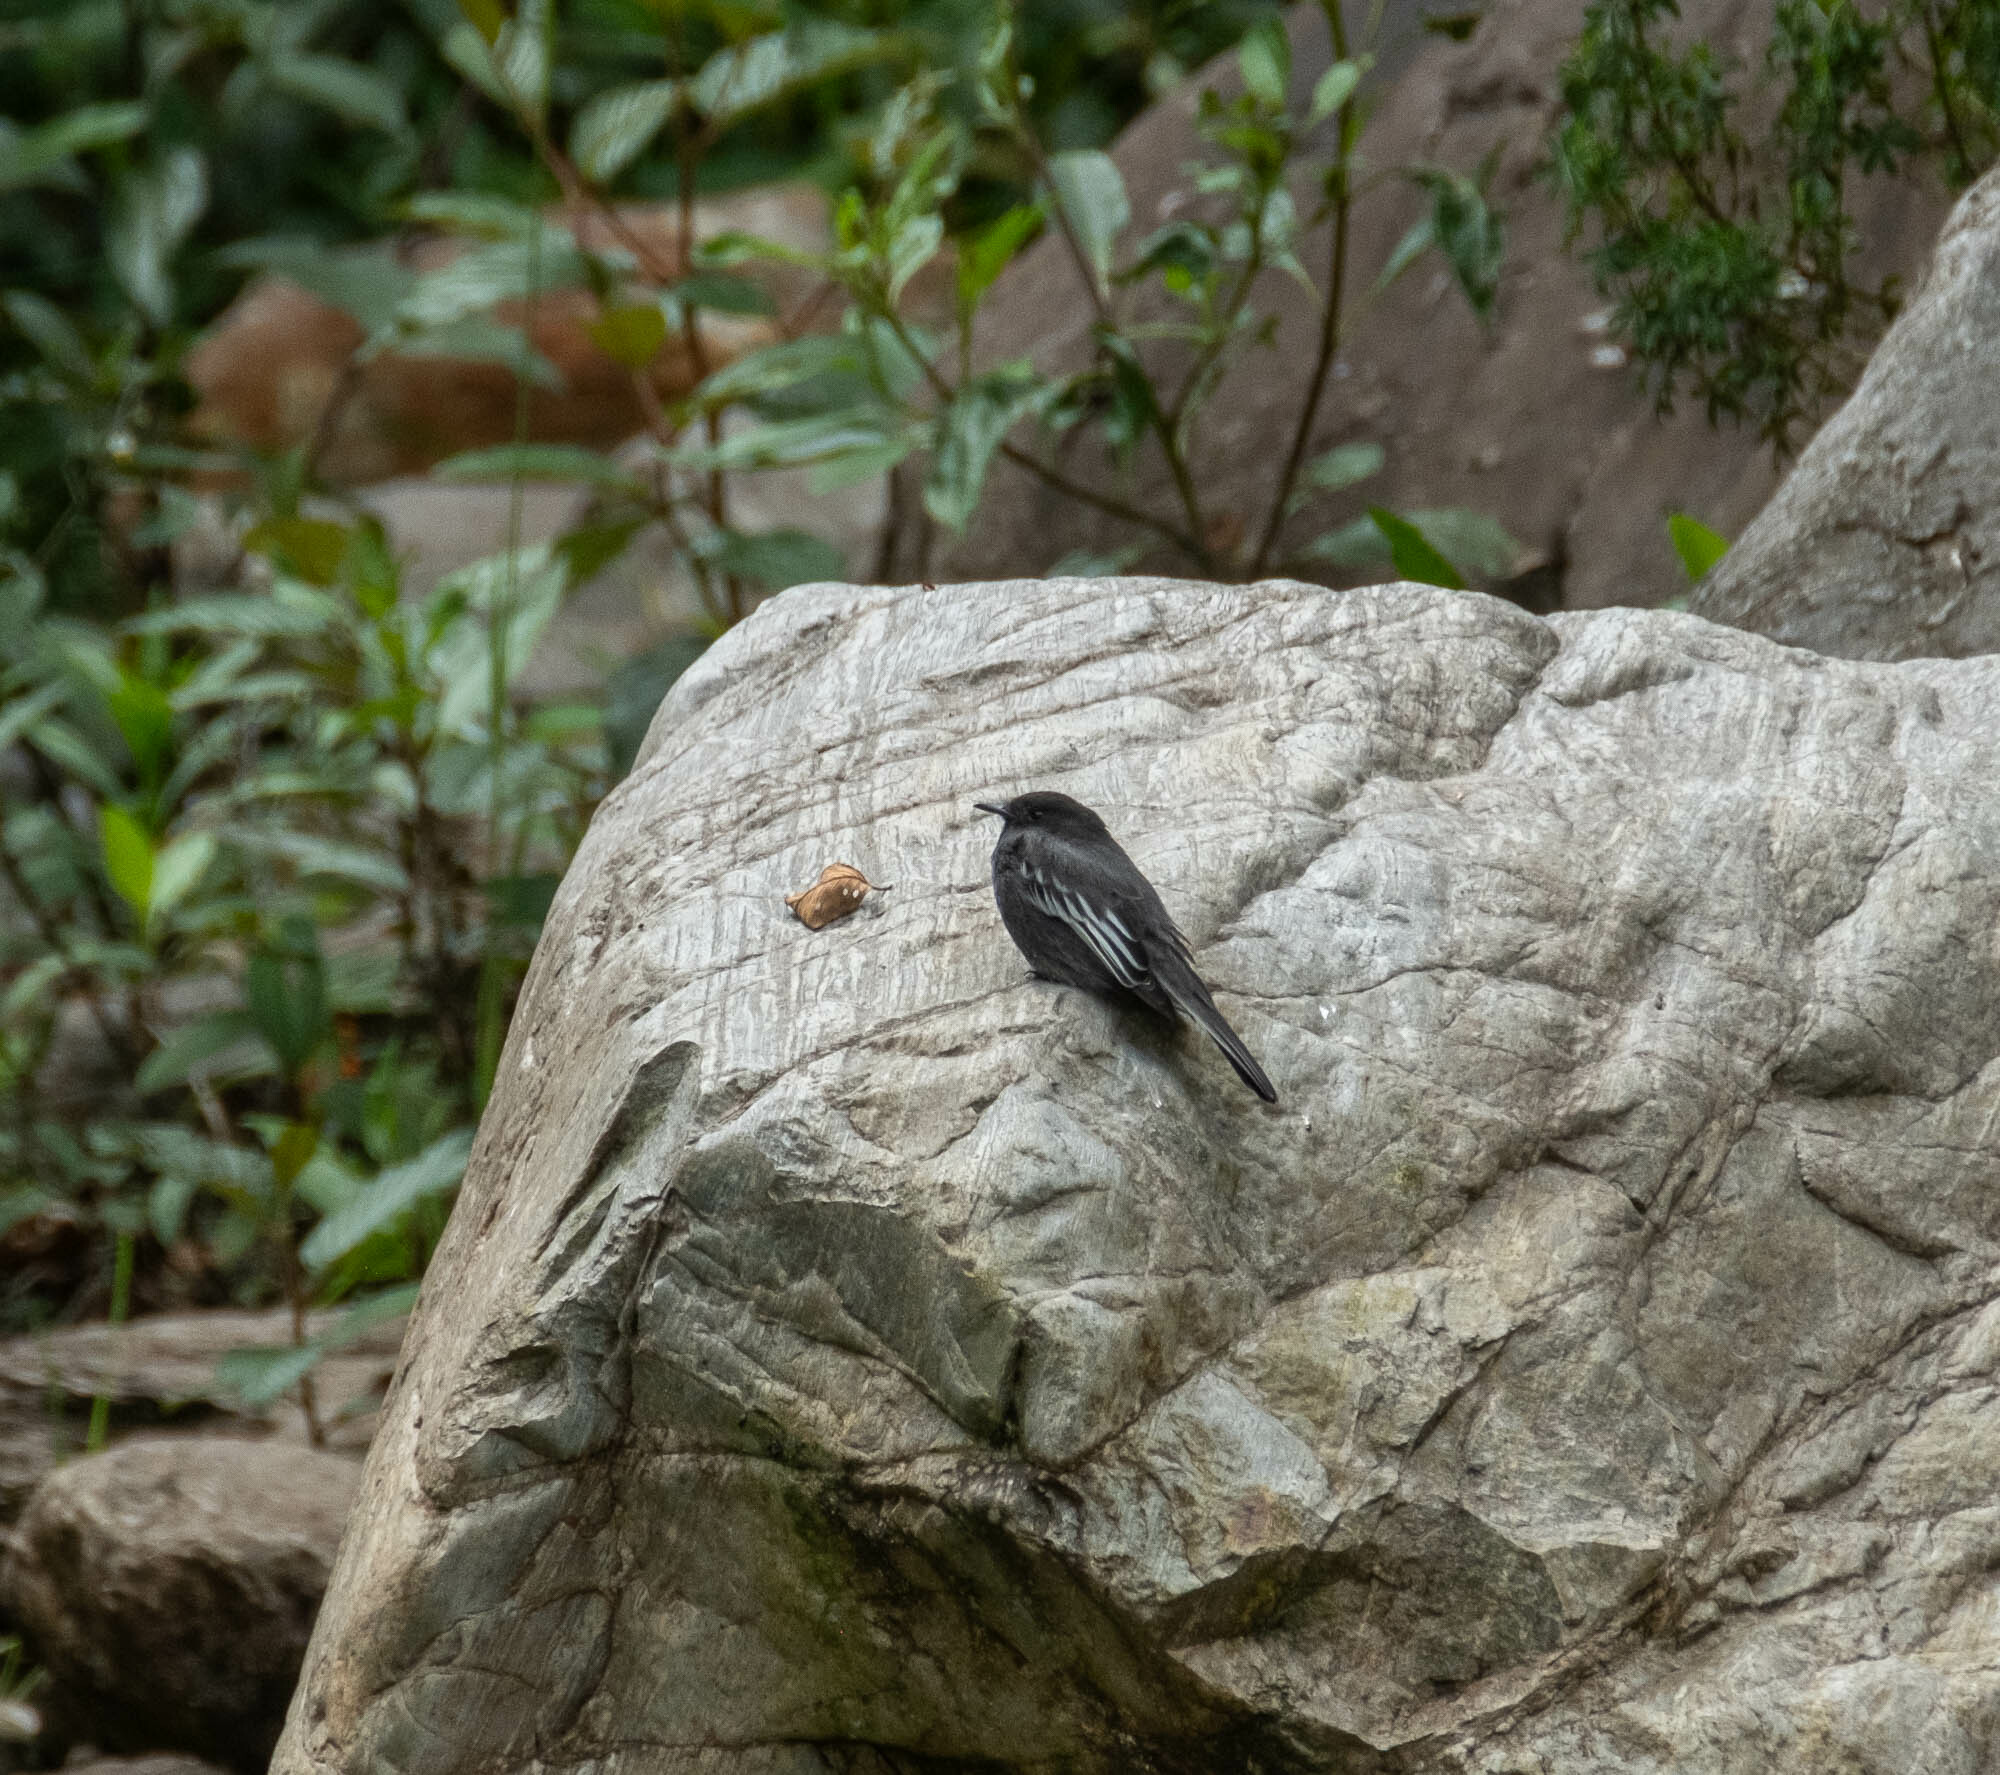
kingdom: Animalia
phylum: Chordata
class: Aves
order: Passeriformes
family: Tyrannidae
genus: Sayornis
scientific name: Sayornis nigricans
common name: Black phoebe
